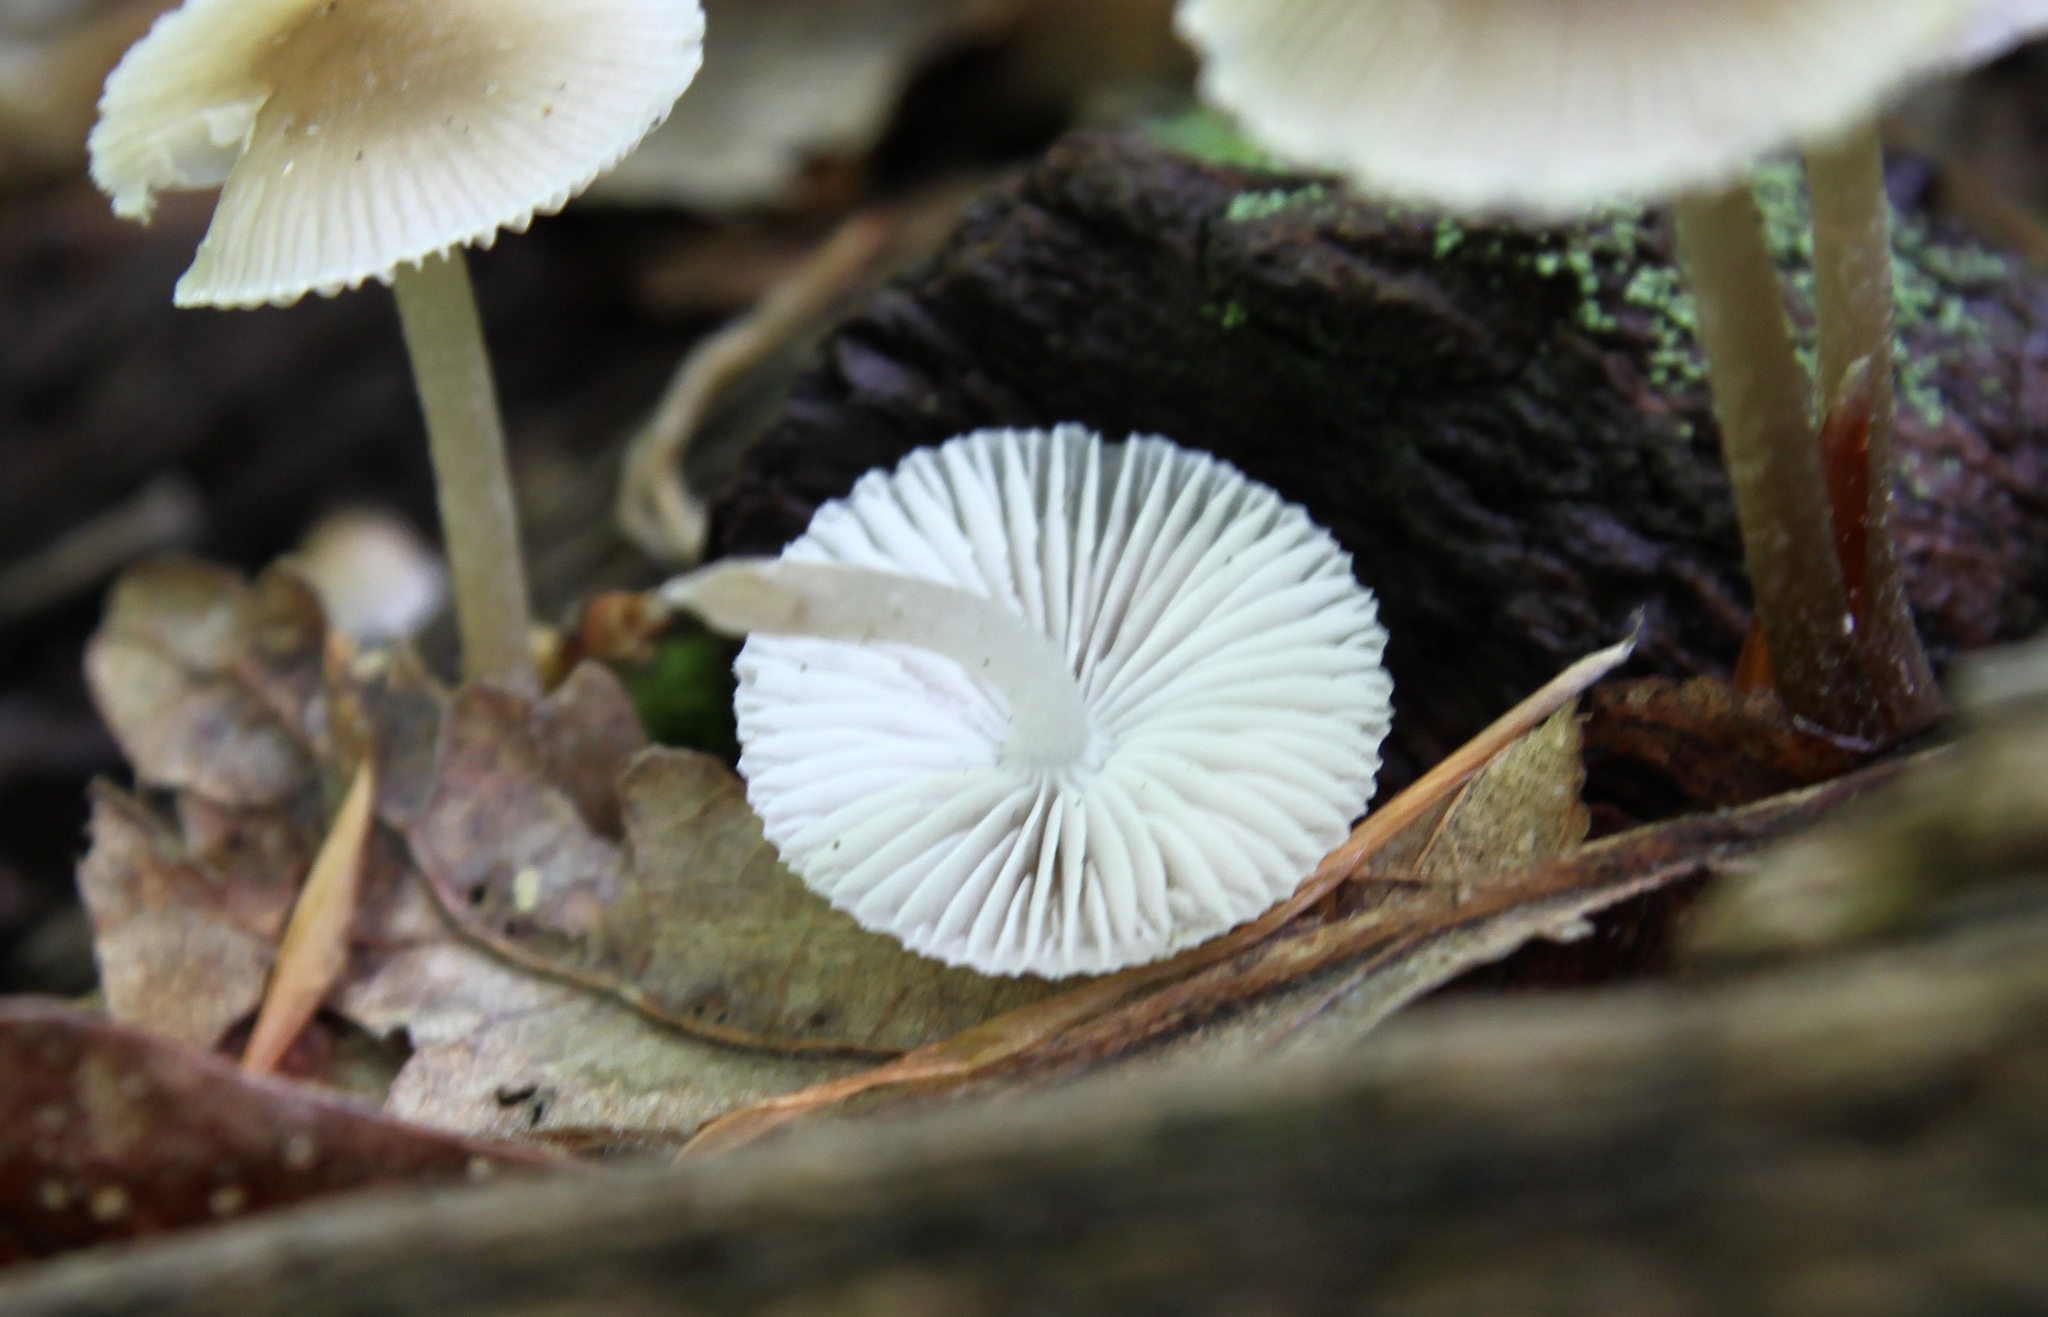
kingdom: Fungi
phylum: Basidiomycota
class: Agaricomycetes
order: Agaricales
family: Mycenaceae
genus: Mycena
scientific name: Mycena galericulata
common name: Bonnet mycena
